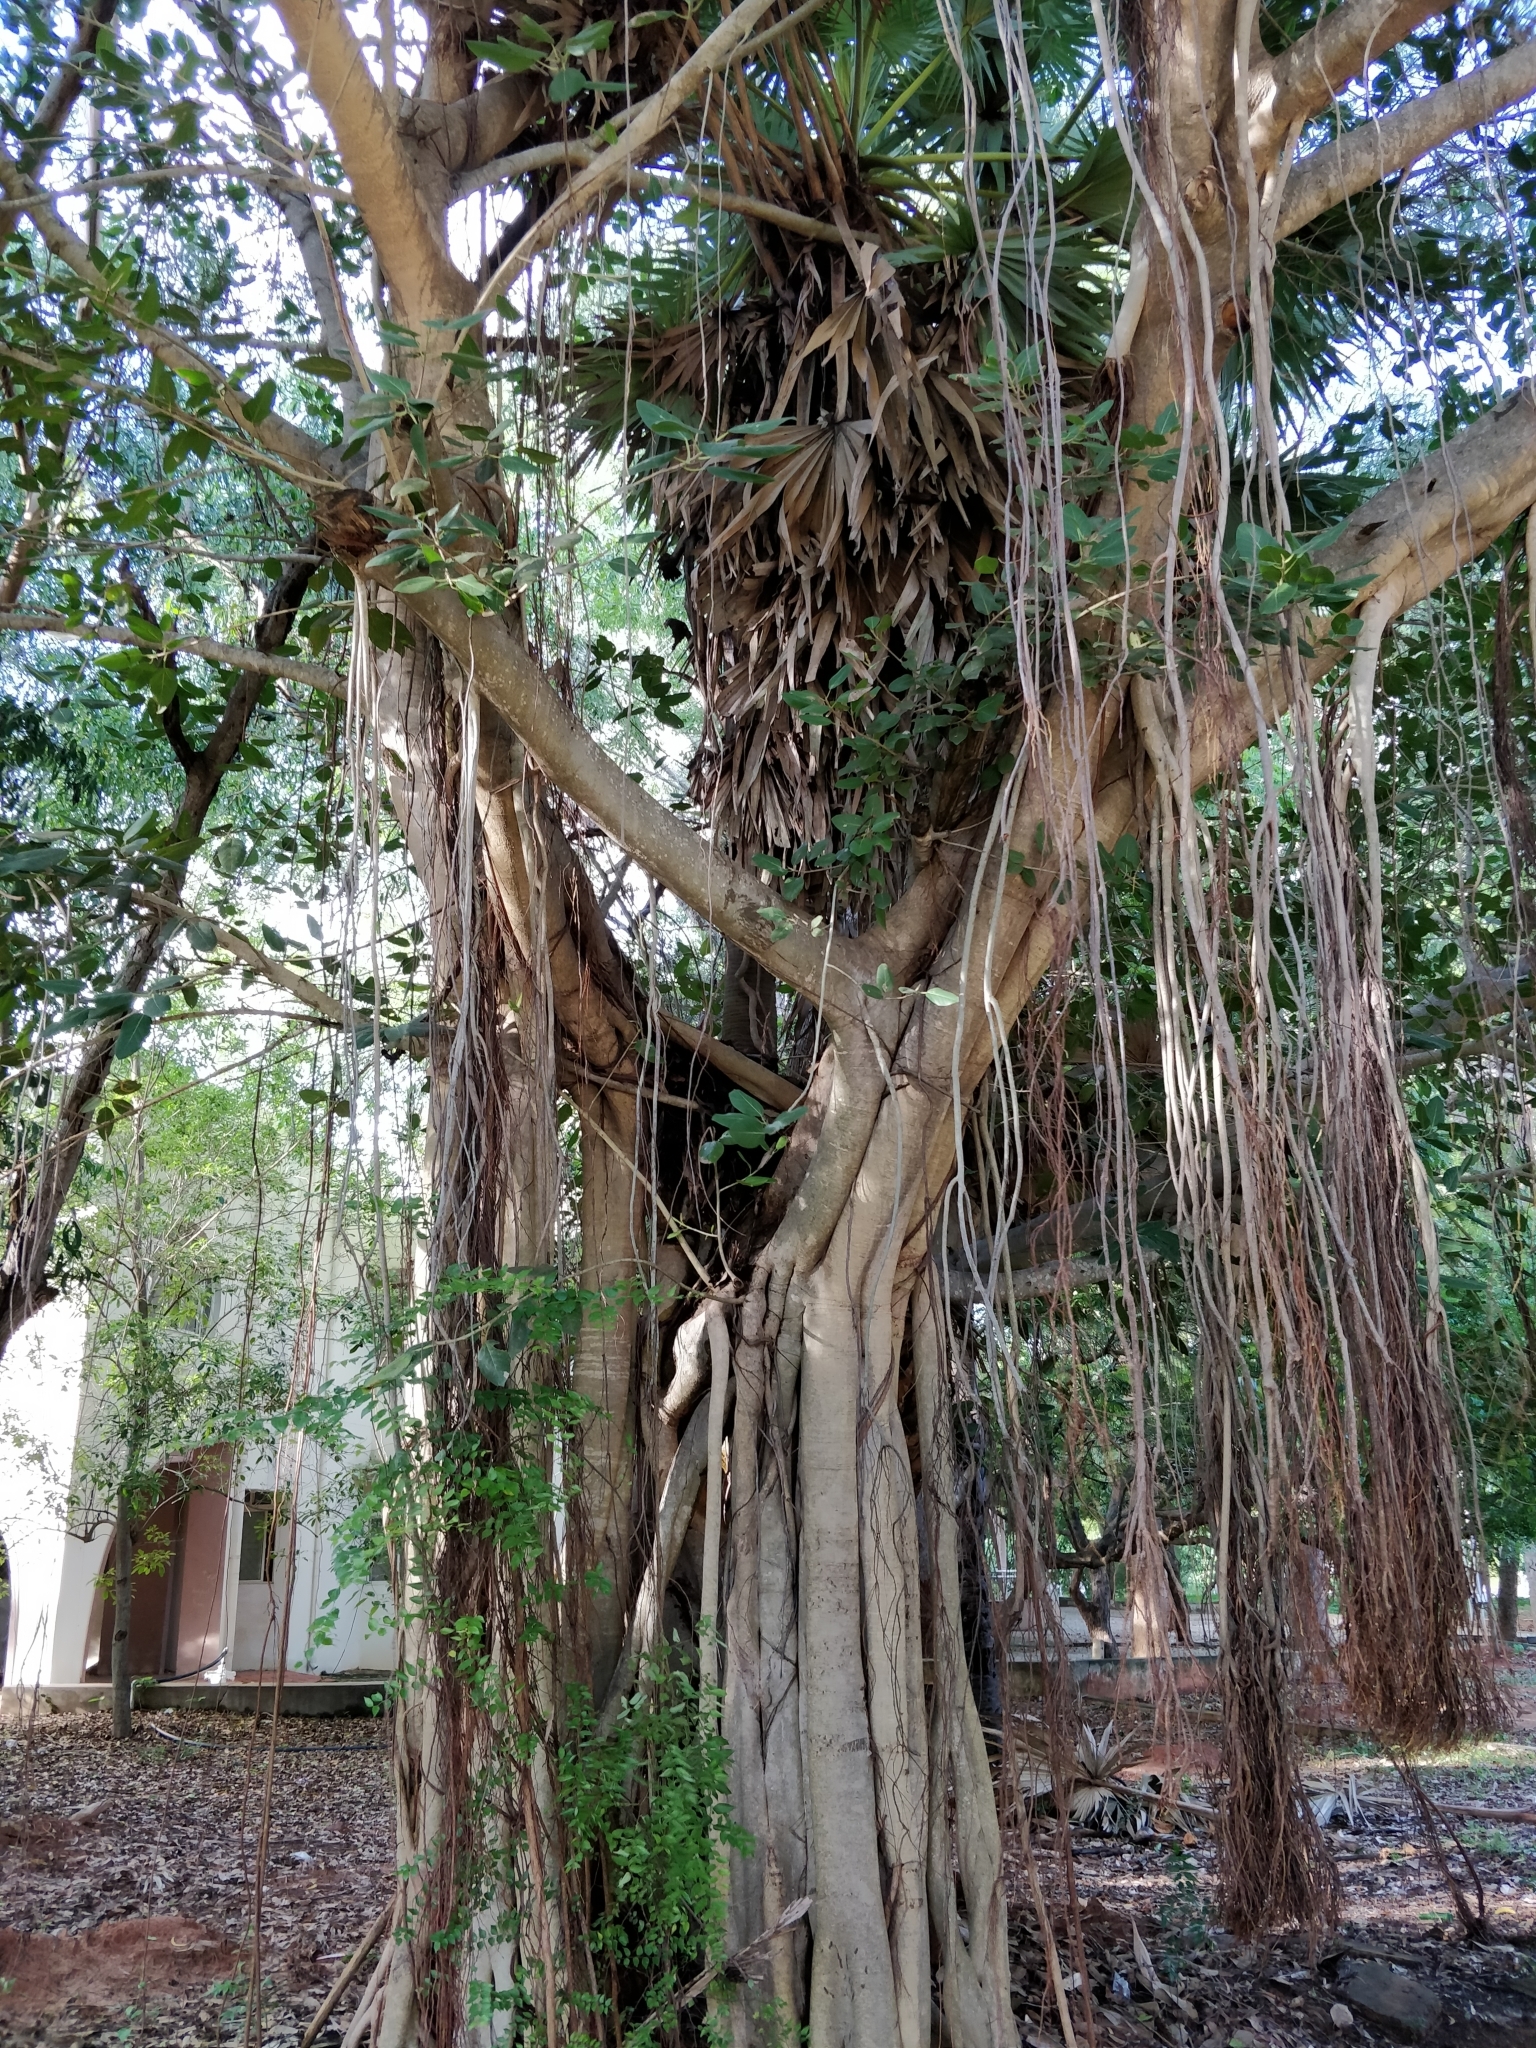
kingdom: Plantae
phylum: Tracheophyta
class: Magnoliopsida
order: Rosales
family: Moraceae
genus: Ficus
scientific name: Ficus benghalensis
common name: Indian banyan
